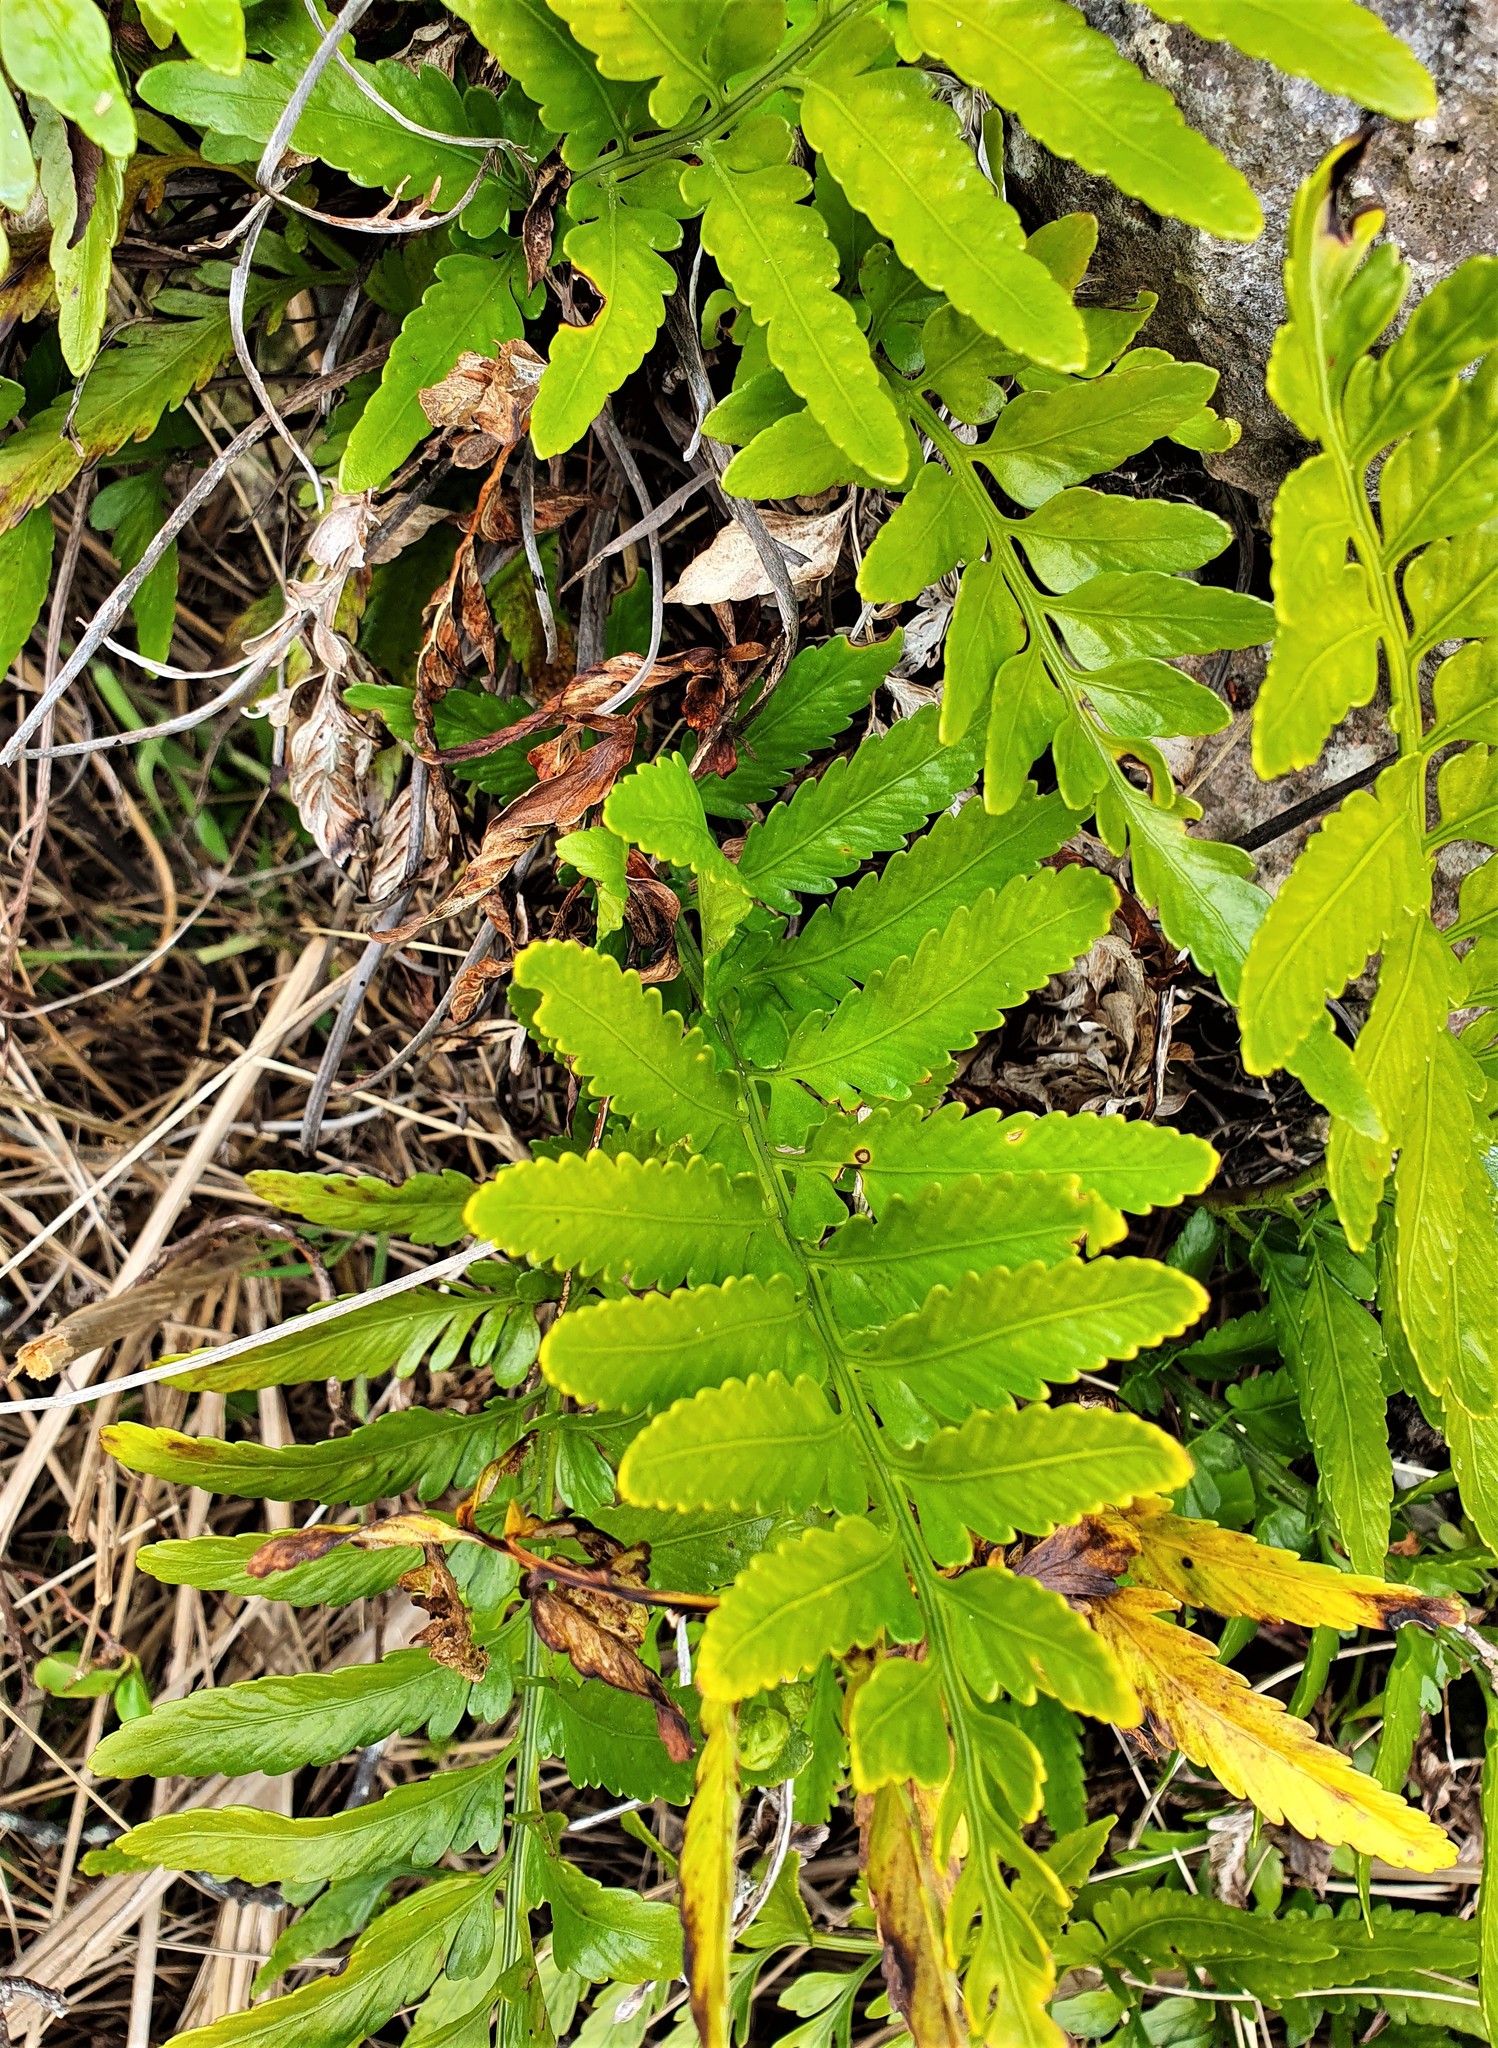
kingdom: Plantae
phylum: Tracheophyta
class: Polypodiopsida
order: Polypodiales
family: Aspleniaceae
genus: Asplenium
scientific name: Asplenium lyallii
